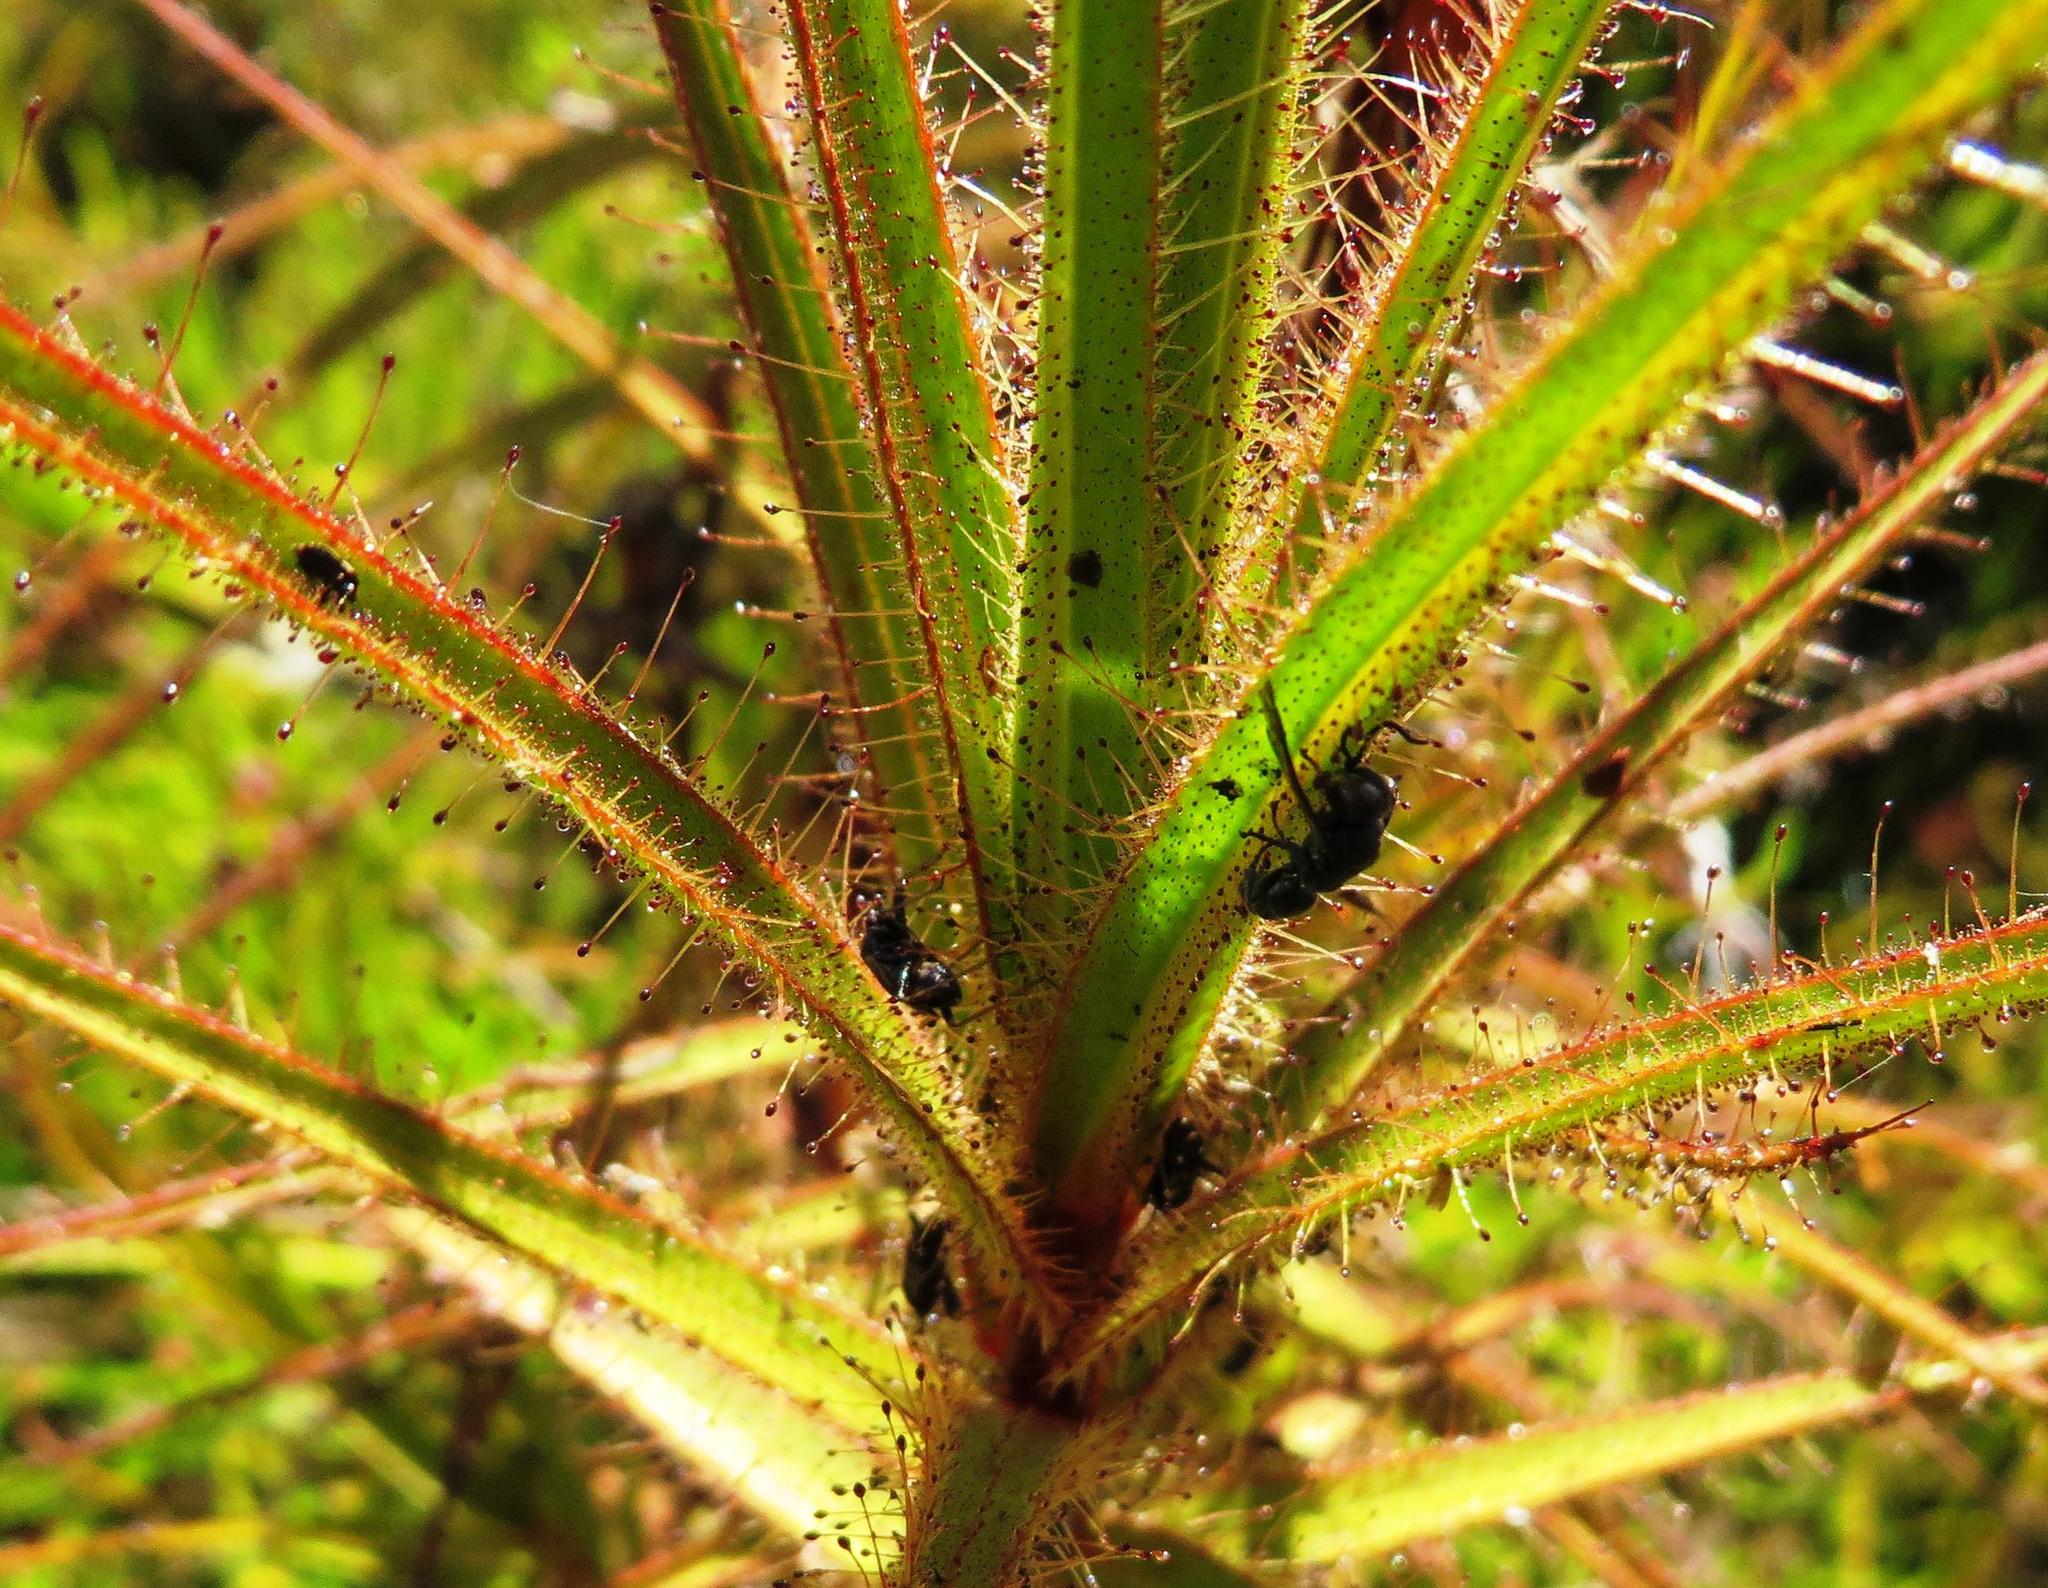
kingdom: Plantae
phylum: Tracheophyta
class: Magnoliopsida
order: Ericales
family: Roridulaceae
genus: Roridula
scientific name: Roridula gorgonias
